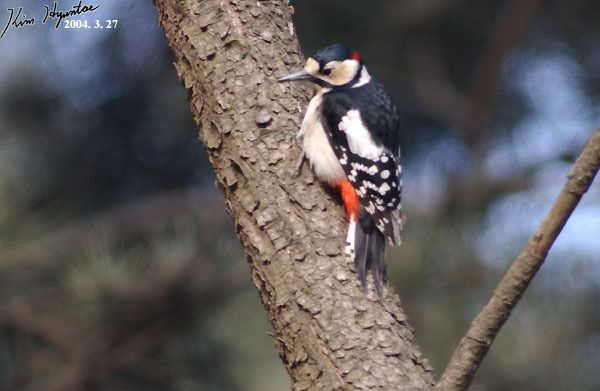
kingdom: Animalia
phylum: Chordata
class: Aves
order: Piciformes
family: Picidae
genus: Dendrocopos
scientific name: Dendrocopos major
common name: Great spotted woodpecker
